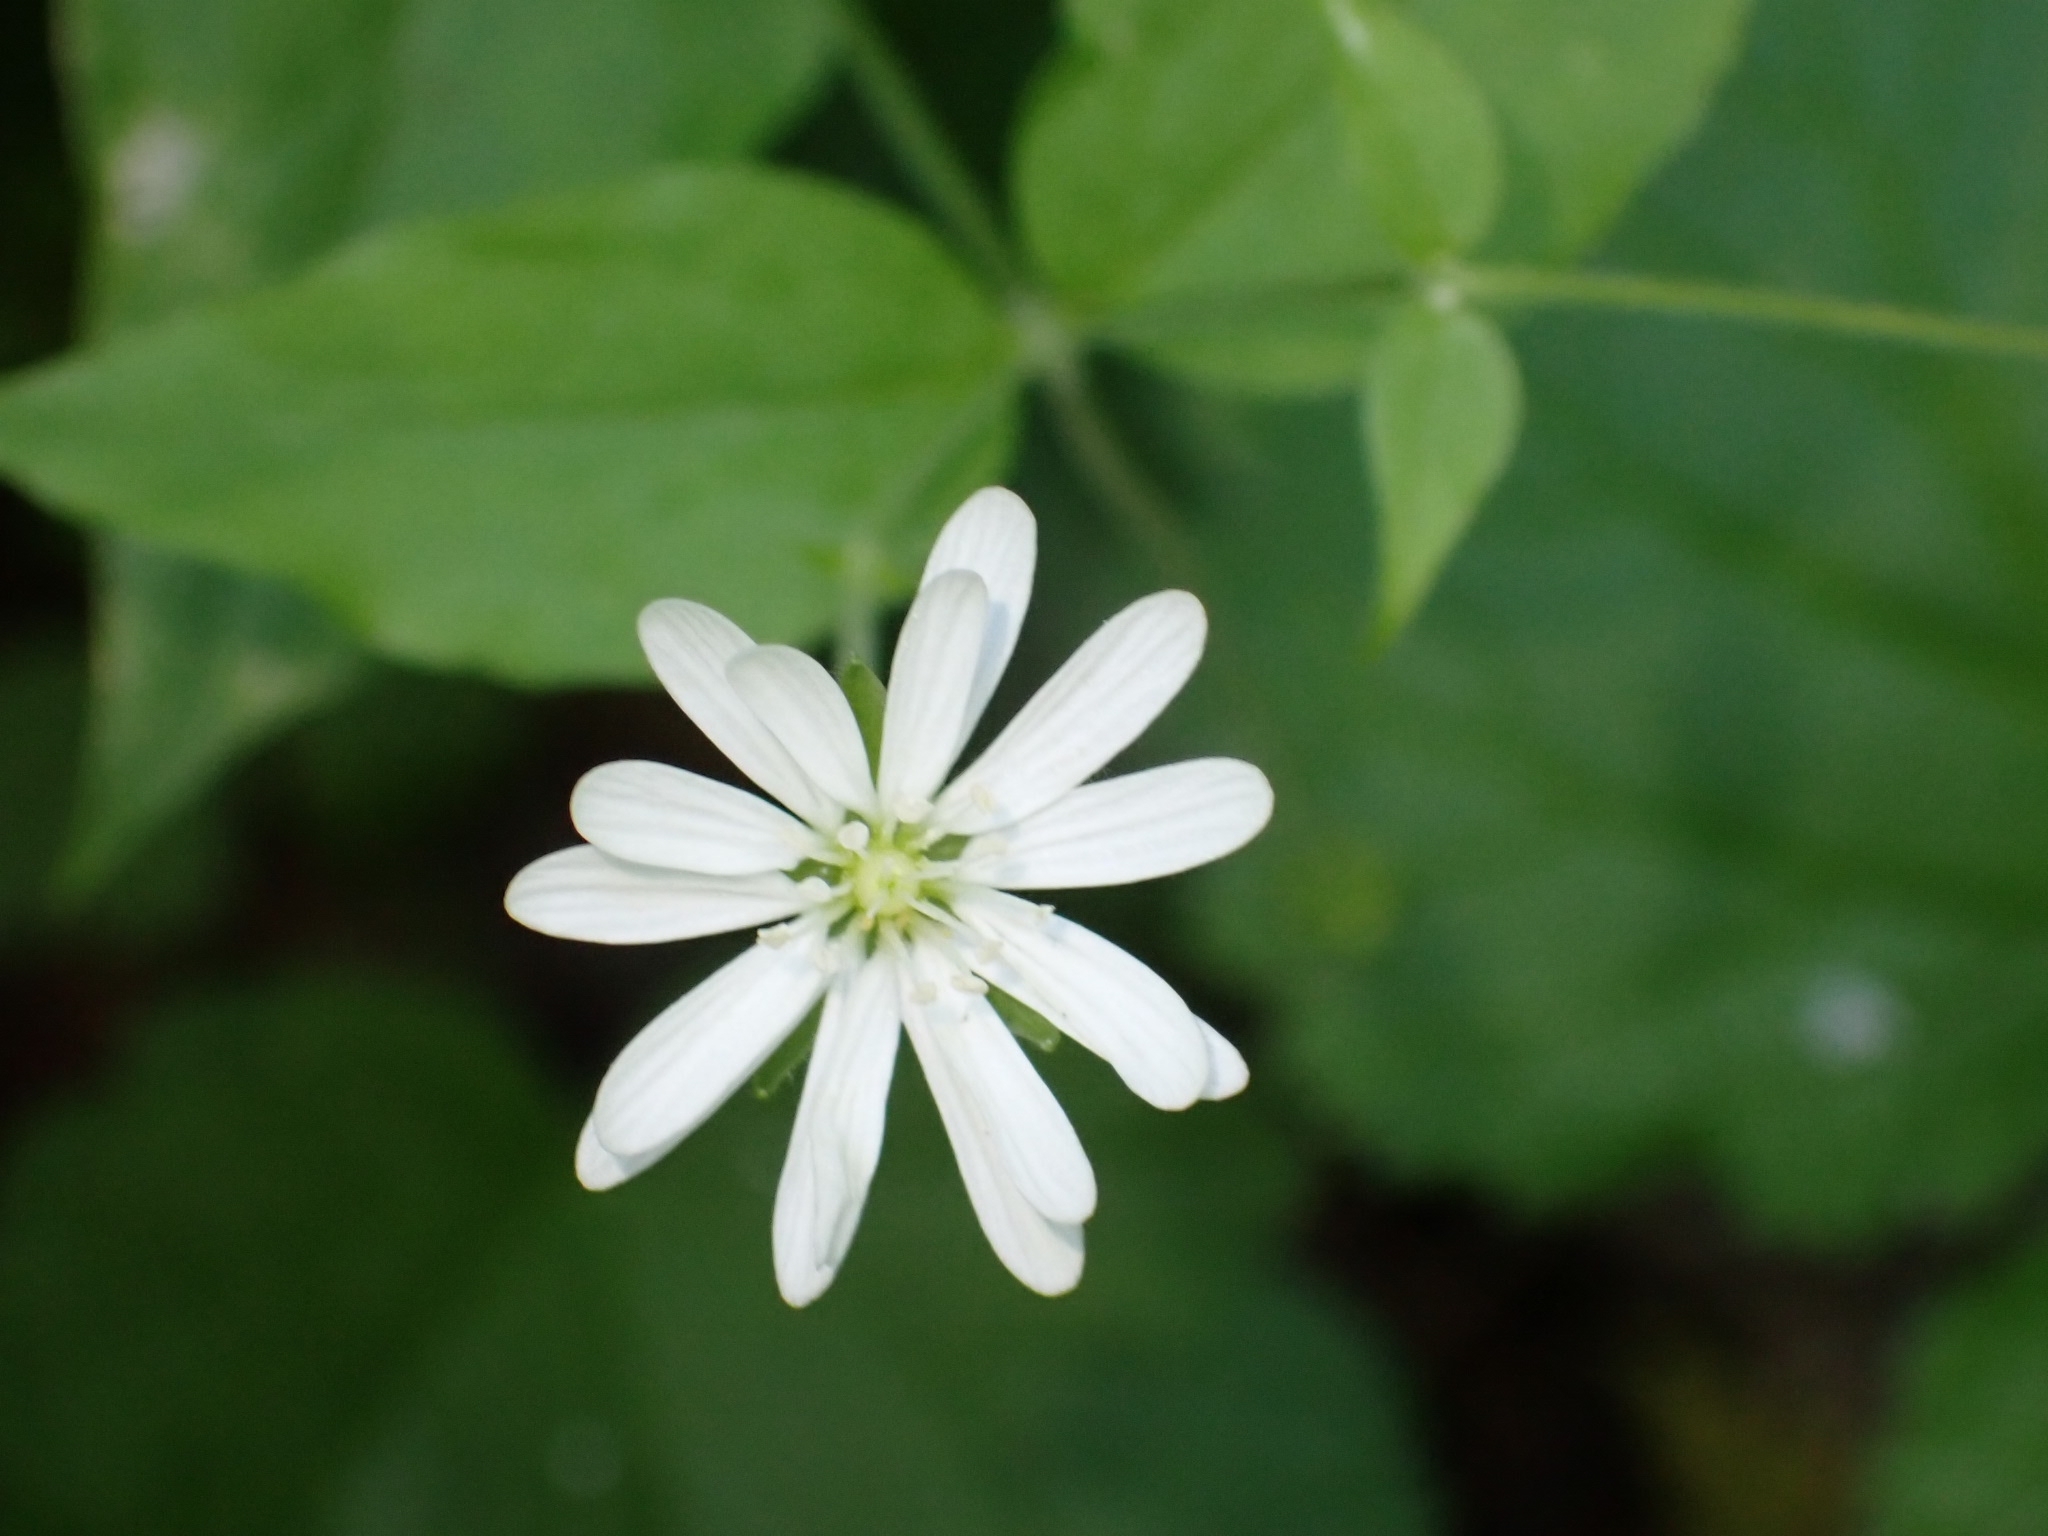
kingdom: Plantae
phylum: Tracheophyta
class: Magnoliopsida
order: Caryophyllales
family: Caryophyllaceae
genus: Stellaria
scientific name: Stellaria bungeana
